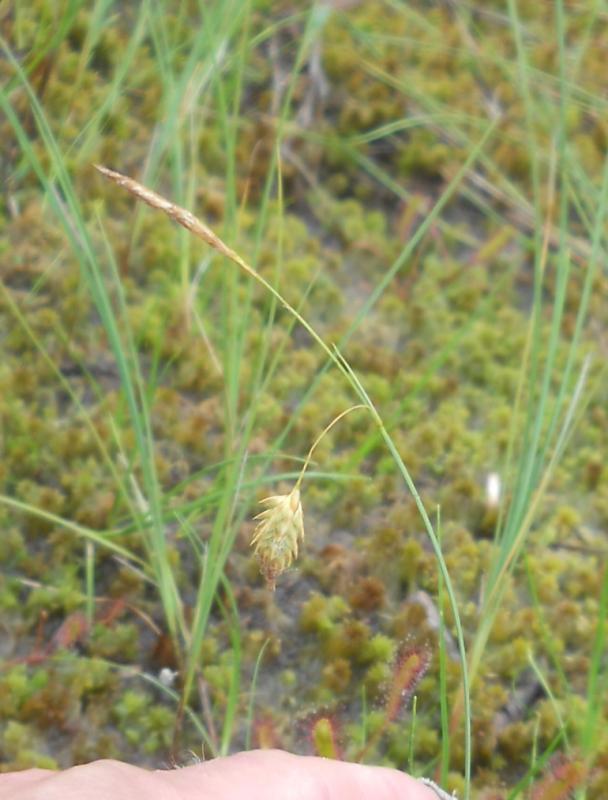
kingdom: Plantae
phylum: Tracheophyta
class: Liliopsida
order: Poales
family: Cyperaceae
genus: Carex
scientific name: Carex limosa
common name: Bog sedge
